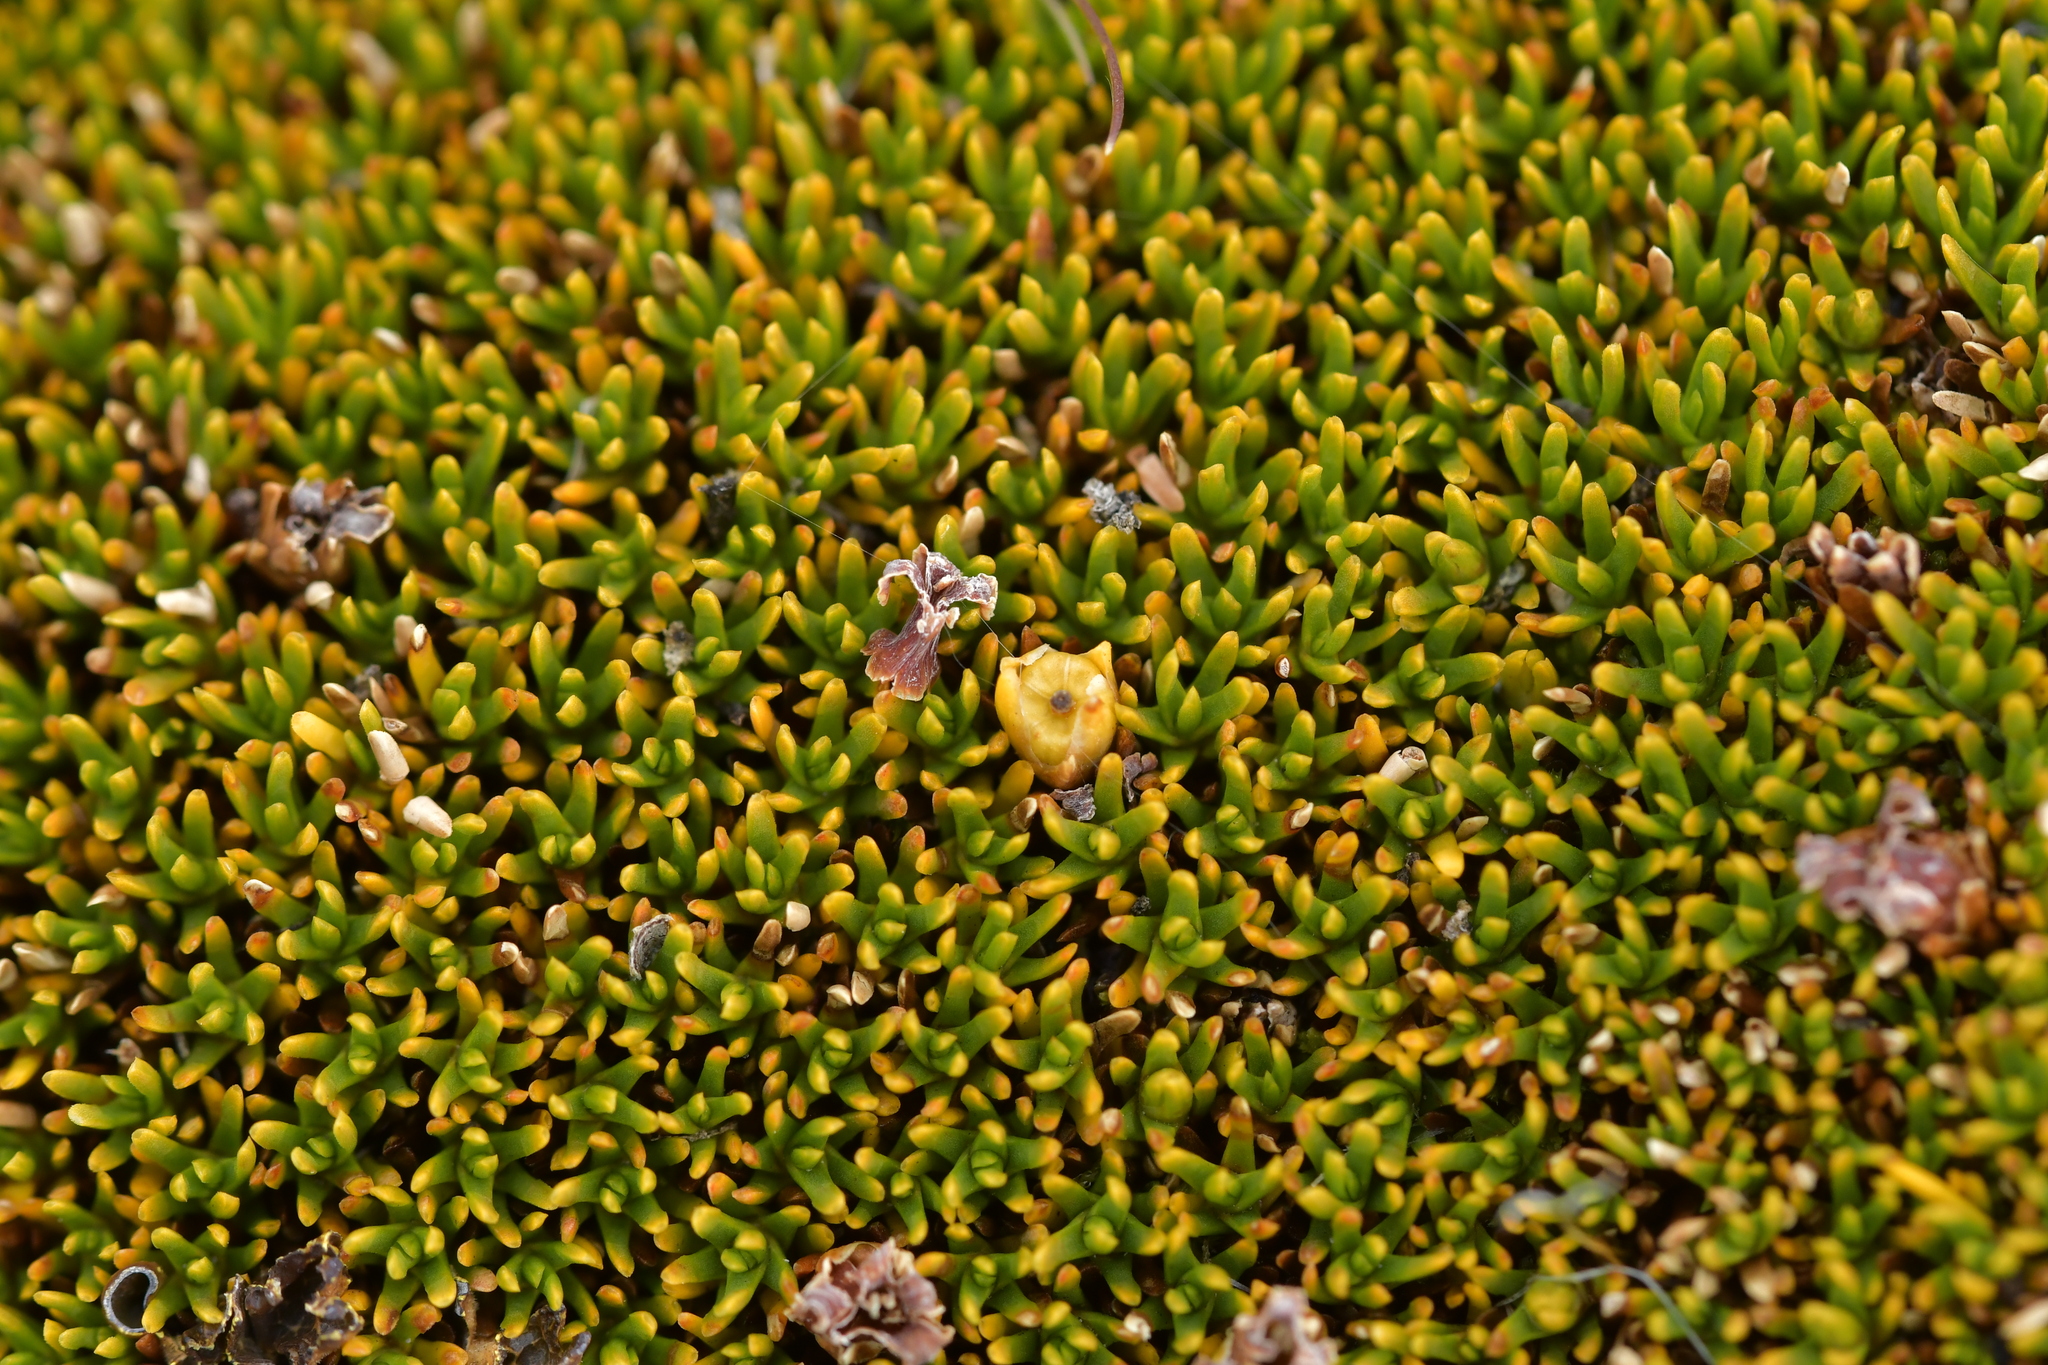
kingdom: Plantae
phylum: Tracheophyta
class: Magnoliopsida
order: Ericales
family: Ericaceae
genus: Dracophyllum
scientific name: Dracophyllum muscoides
